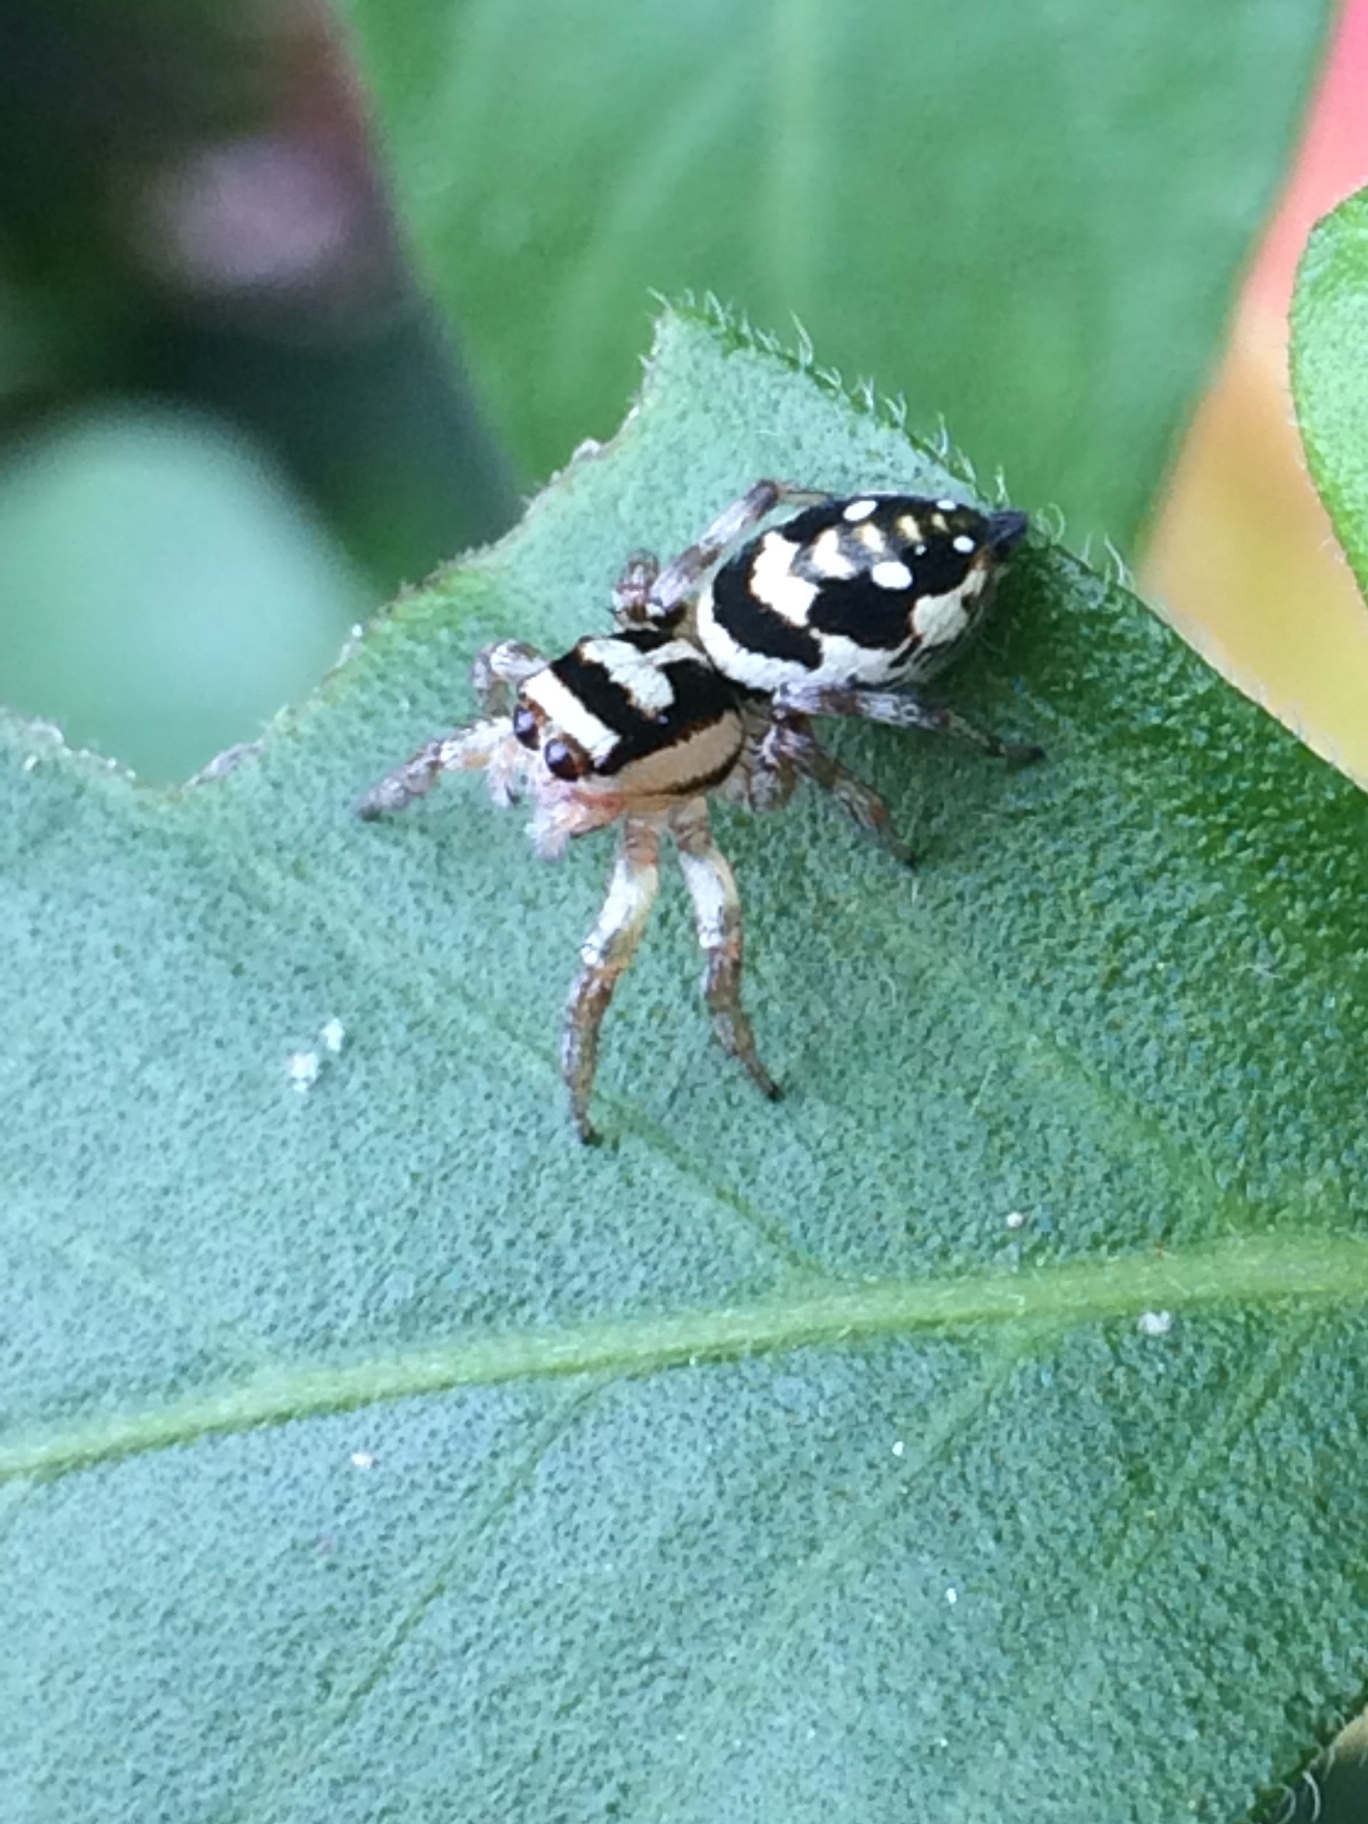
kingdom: Animalia
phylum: Arthropoda
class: Arachnida
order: Araneae
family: Salticidae
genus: Nycerella
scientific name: Nycerella aprica
